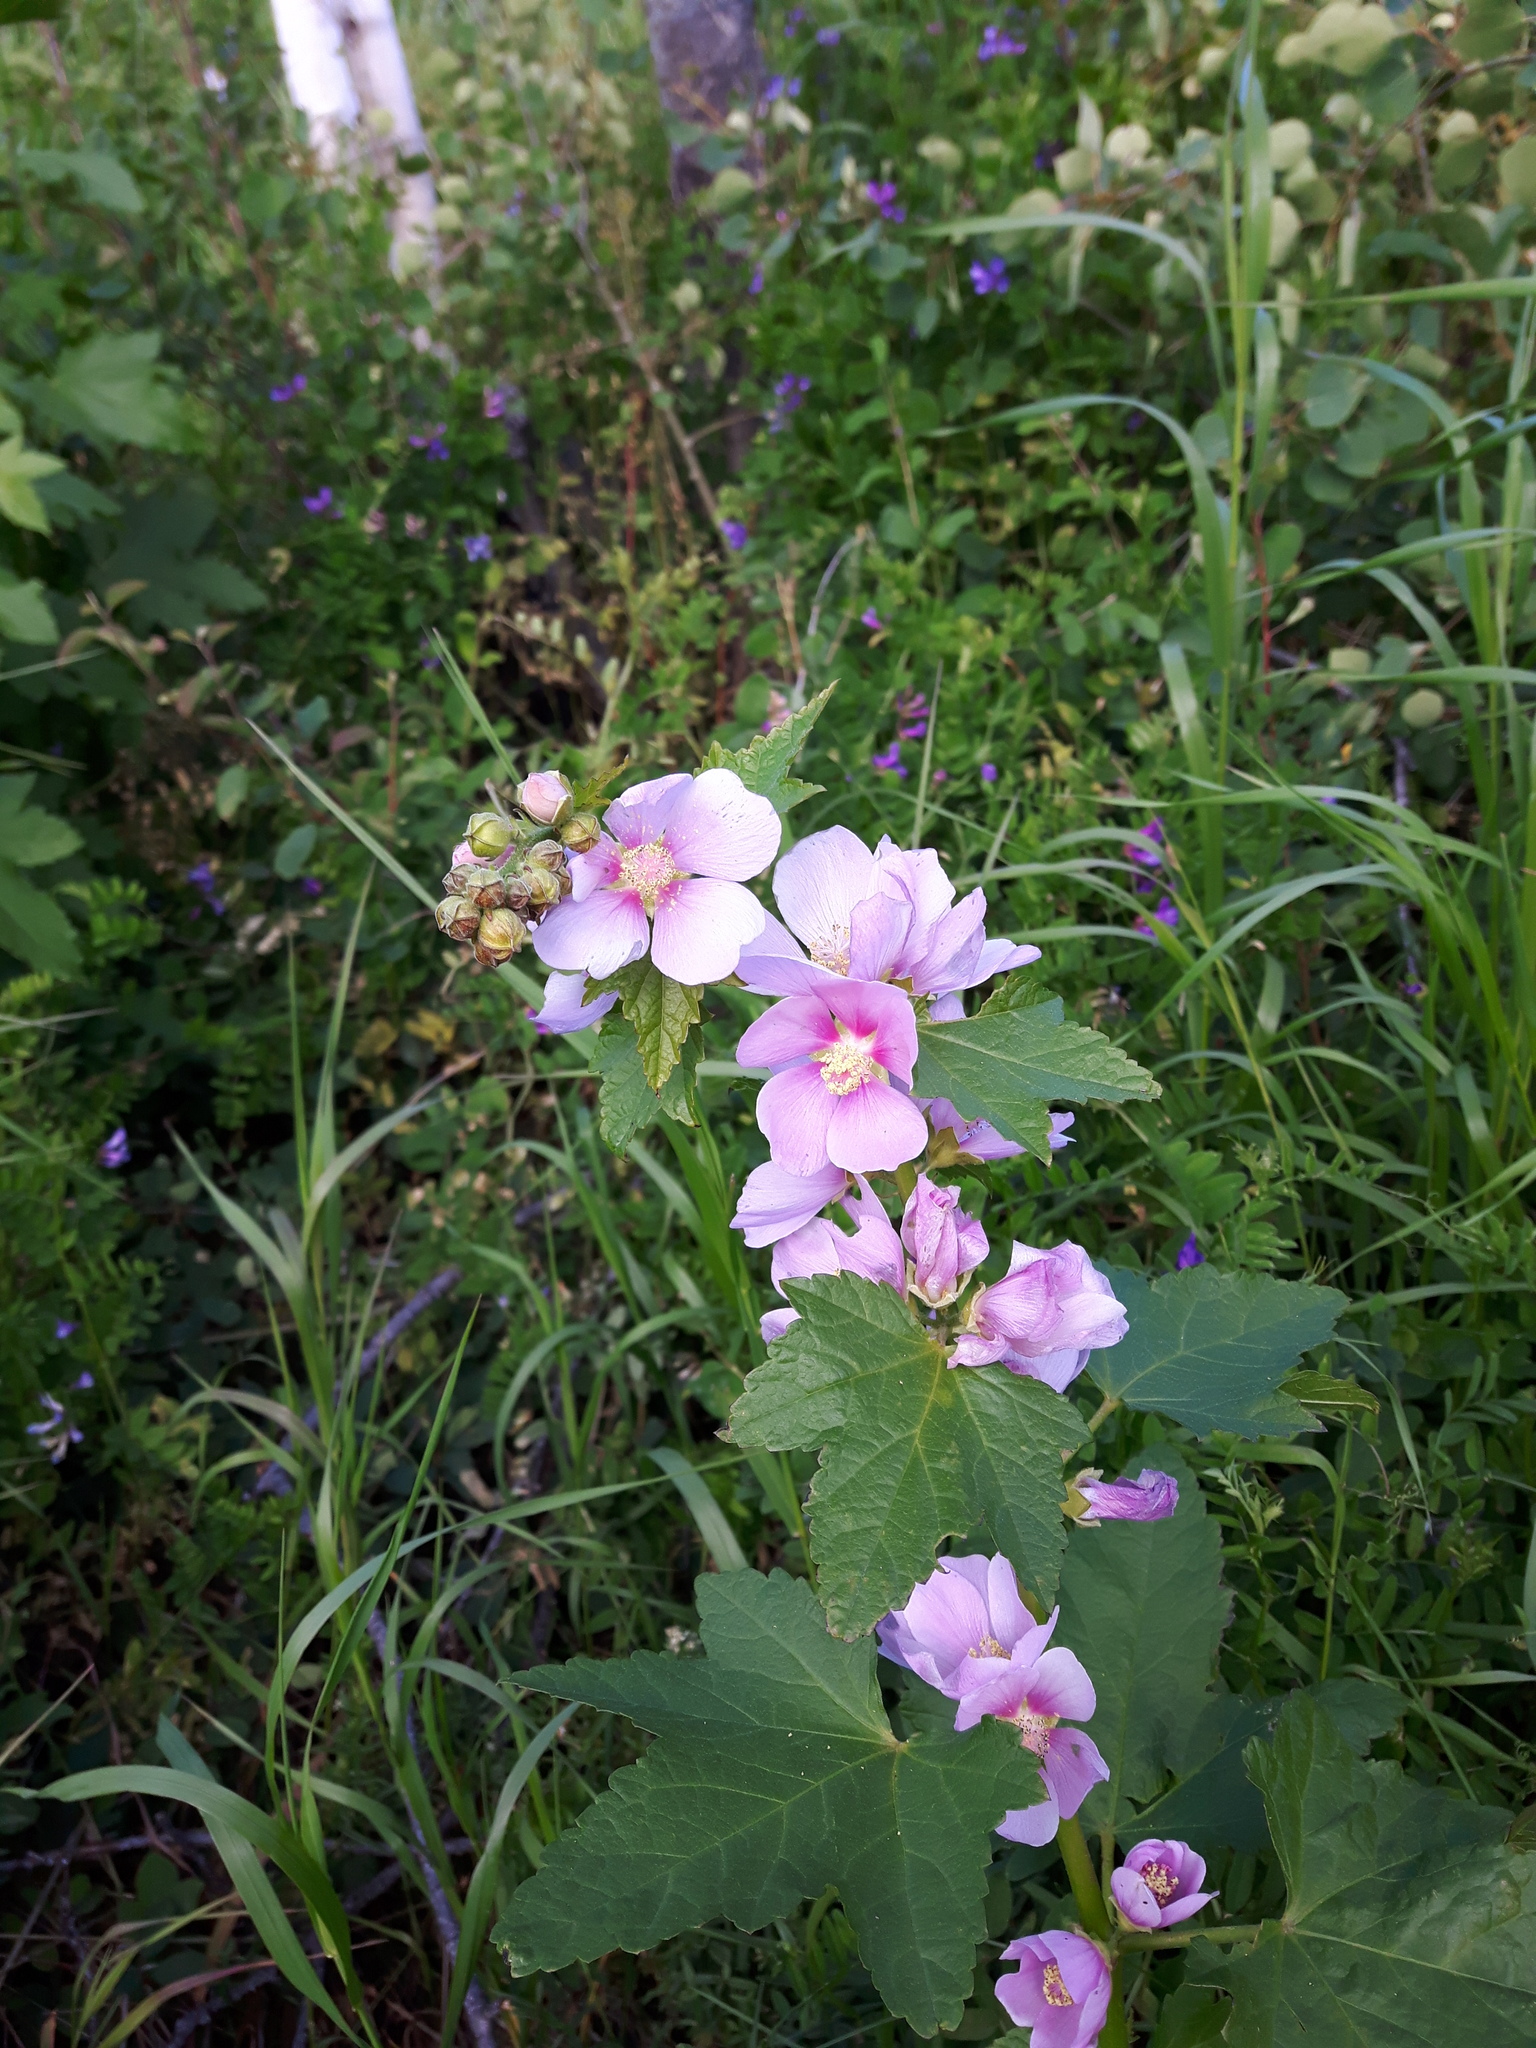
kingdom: Plantae
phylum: Tracheophyta
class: Magnoliopsida
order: Malvales
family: Malvaceae
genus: Iliamna
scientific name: Iliamna rivularis
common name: Wild hollyhock
